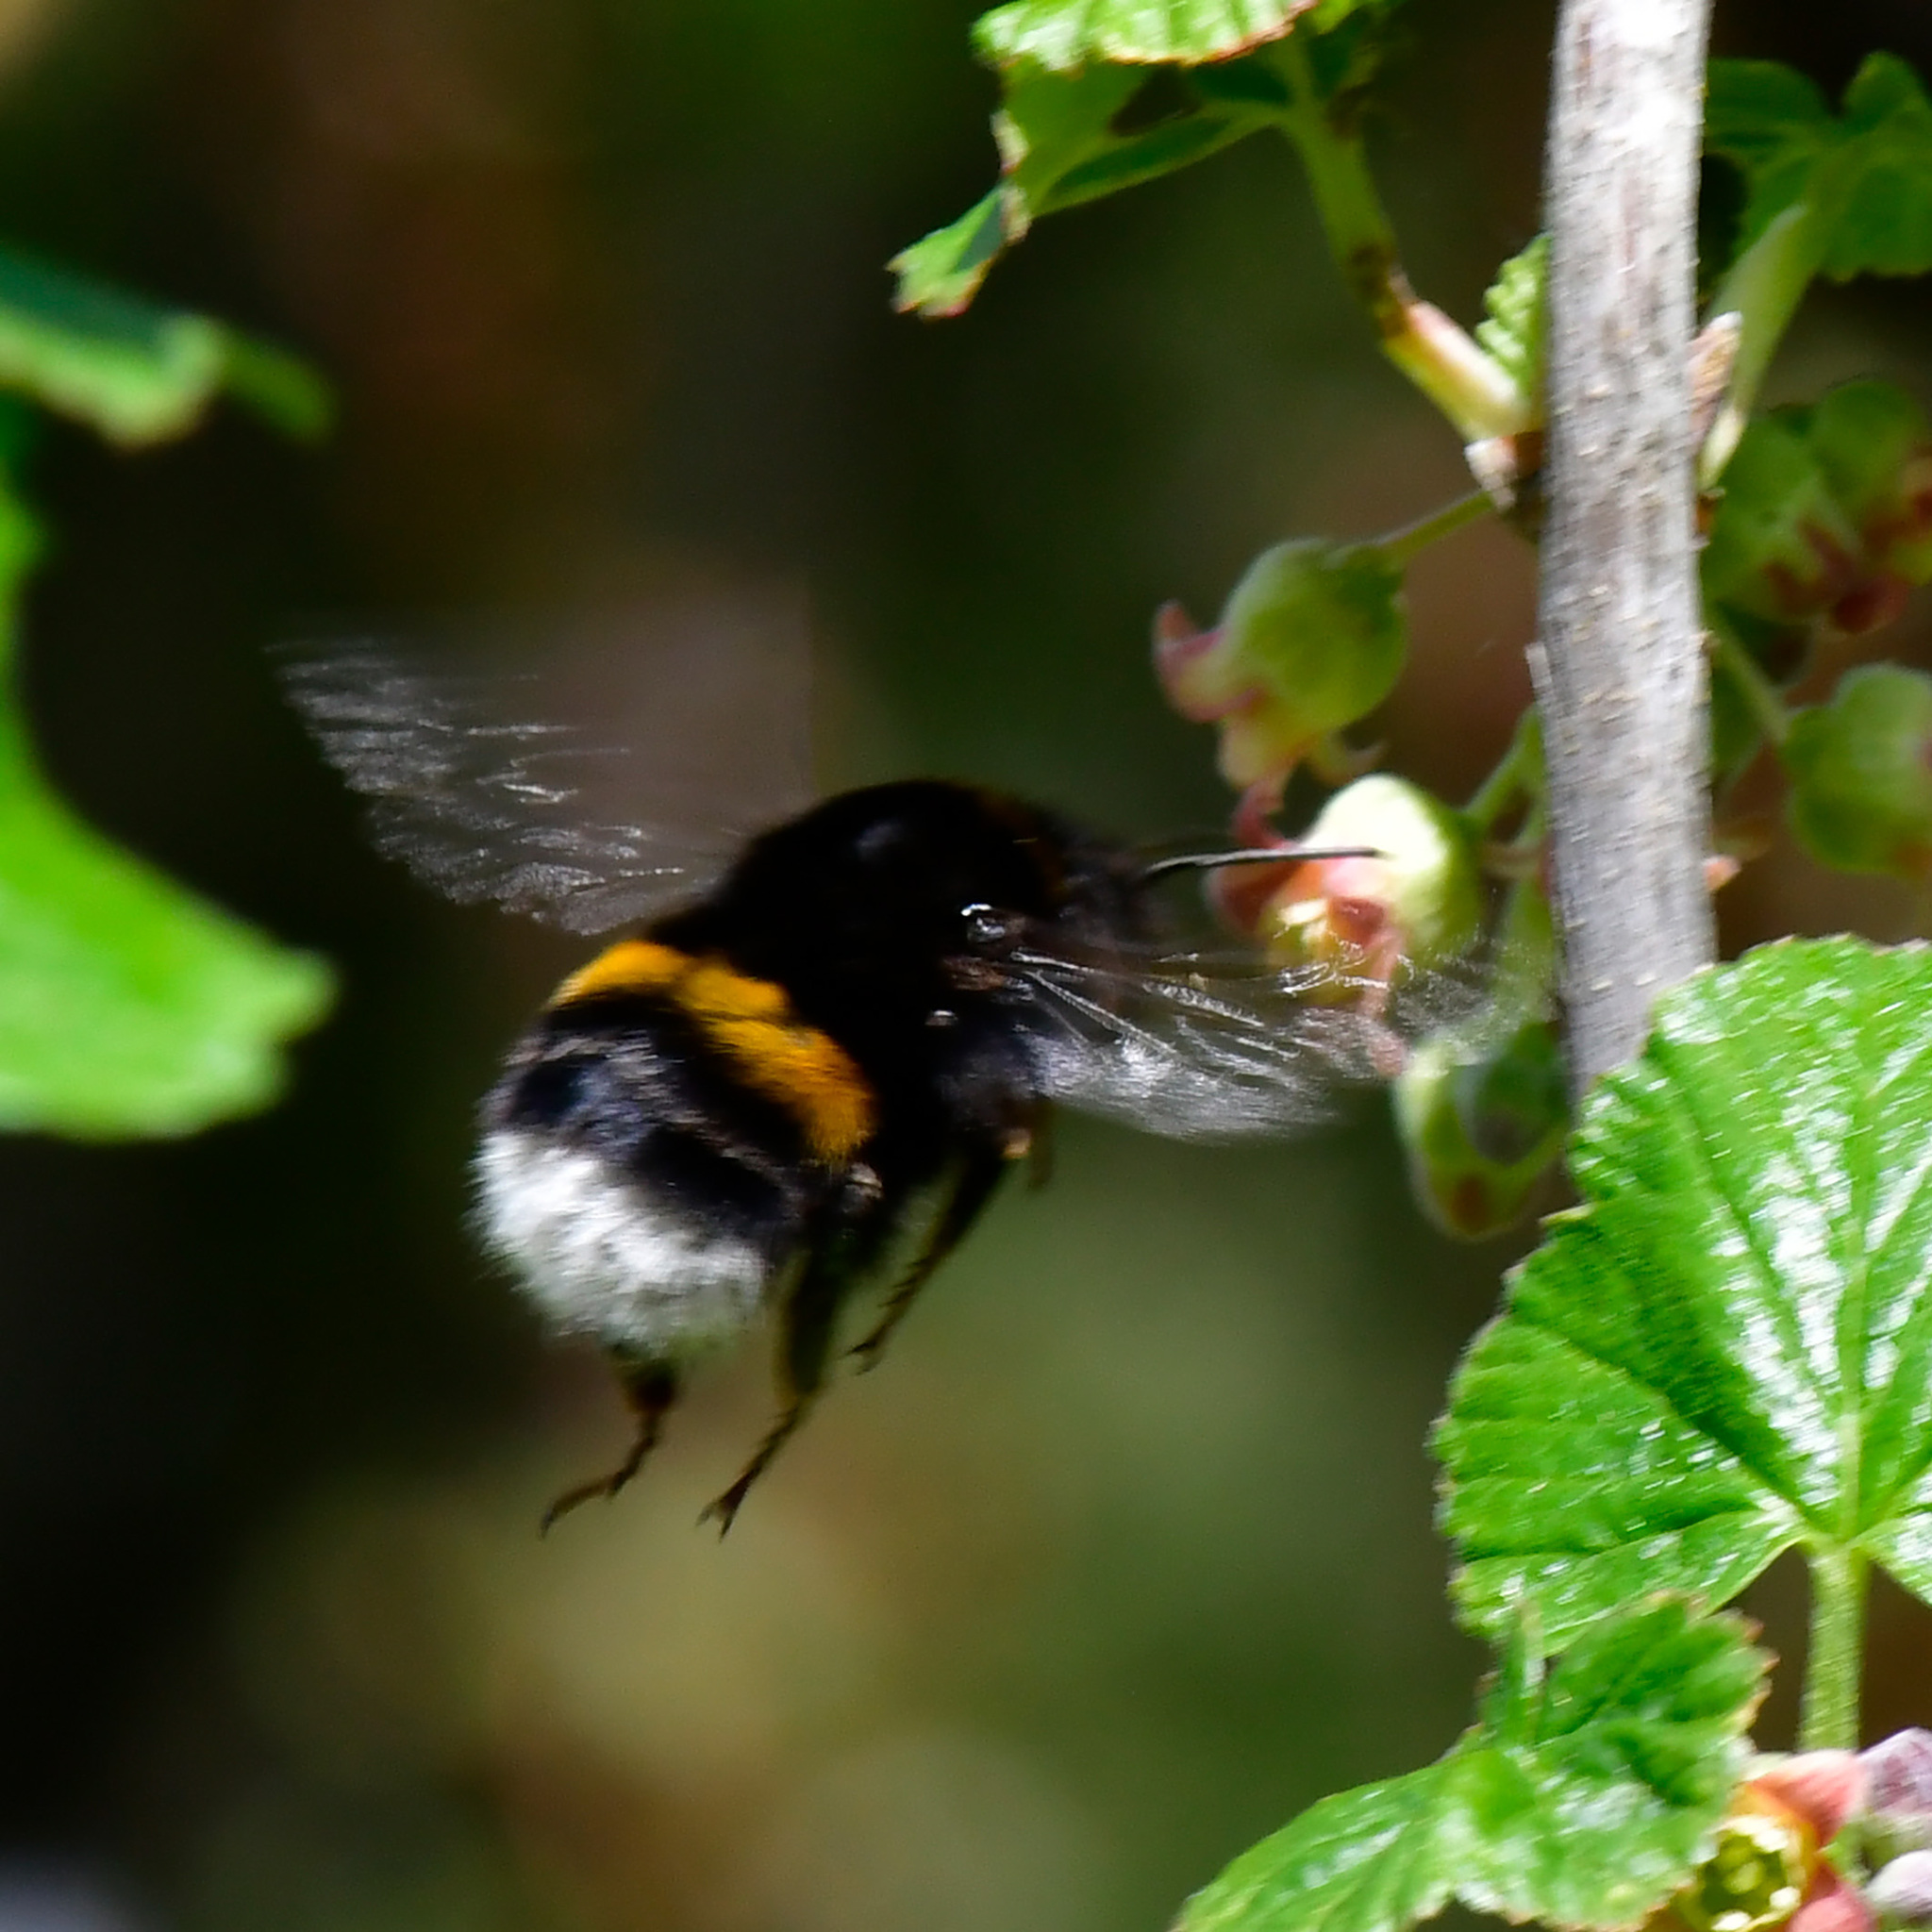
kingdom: Animalia
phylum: Arthropoda
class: Insecta
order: Hymenoptera
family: Apidae
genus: Bombus
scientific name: Bombus
